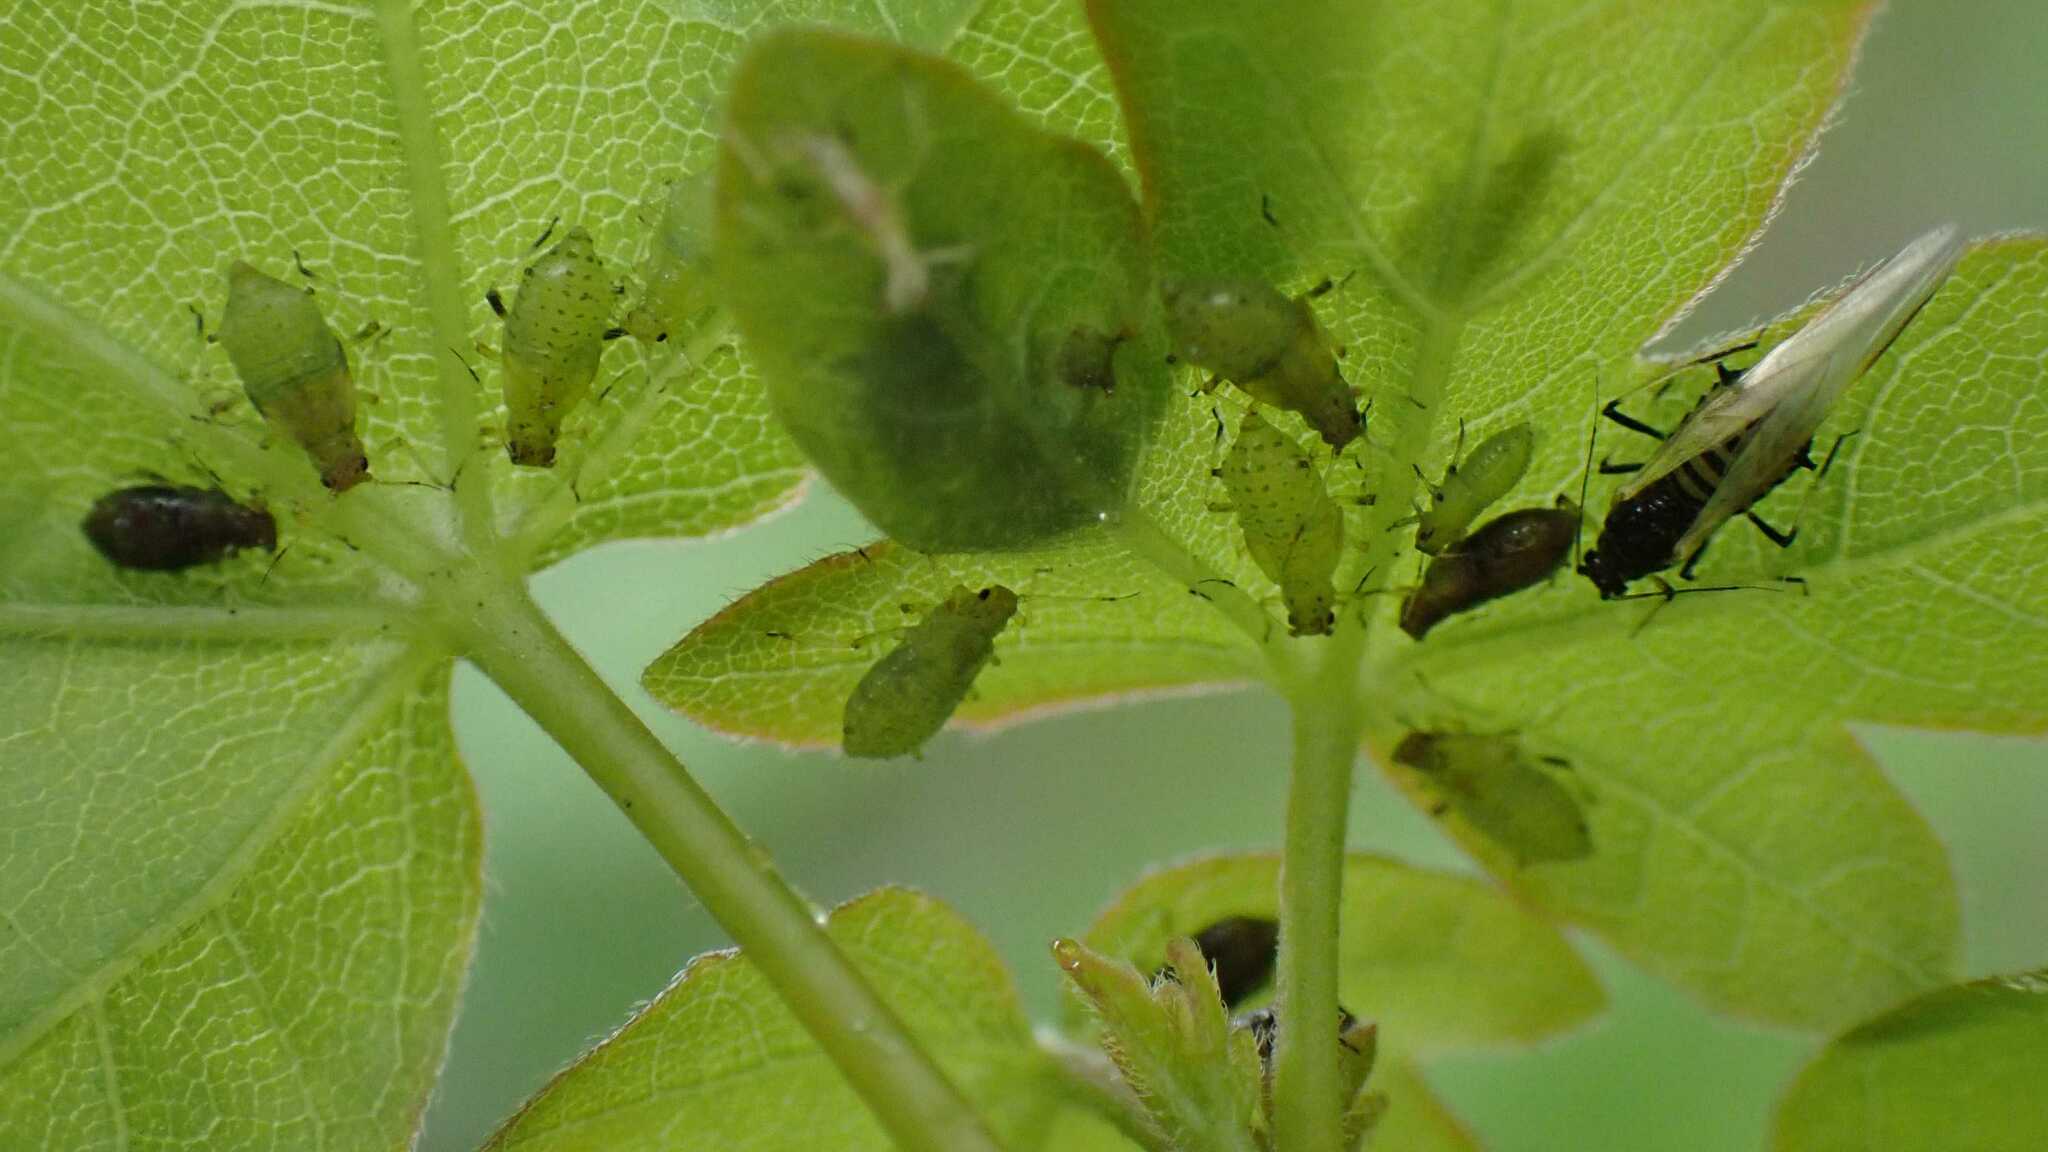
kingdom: Animalia
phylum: Arthropoda
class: Insecta
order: Hemiptera
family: Aphididae
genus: Periphyllus
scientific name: Periphyllus testudinaceus
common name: Common maple aphid
